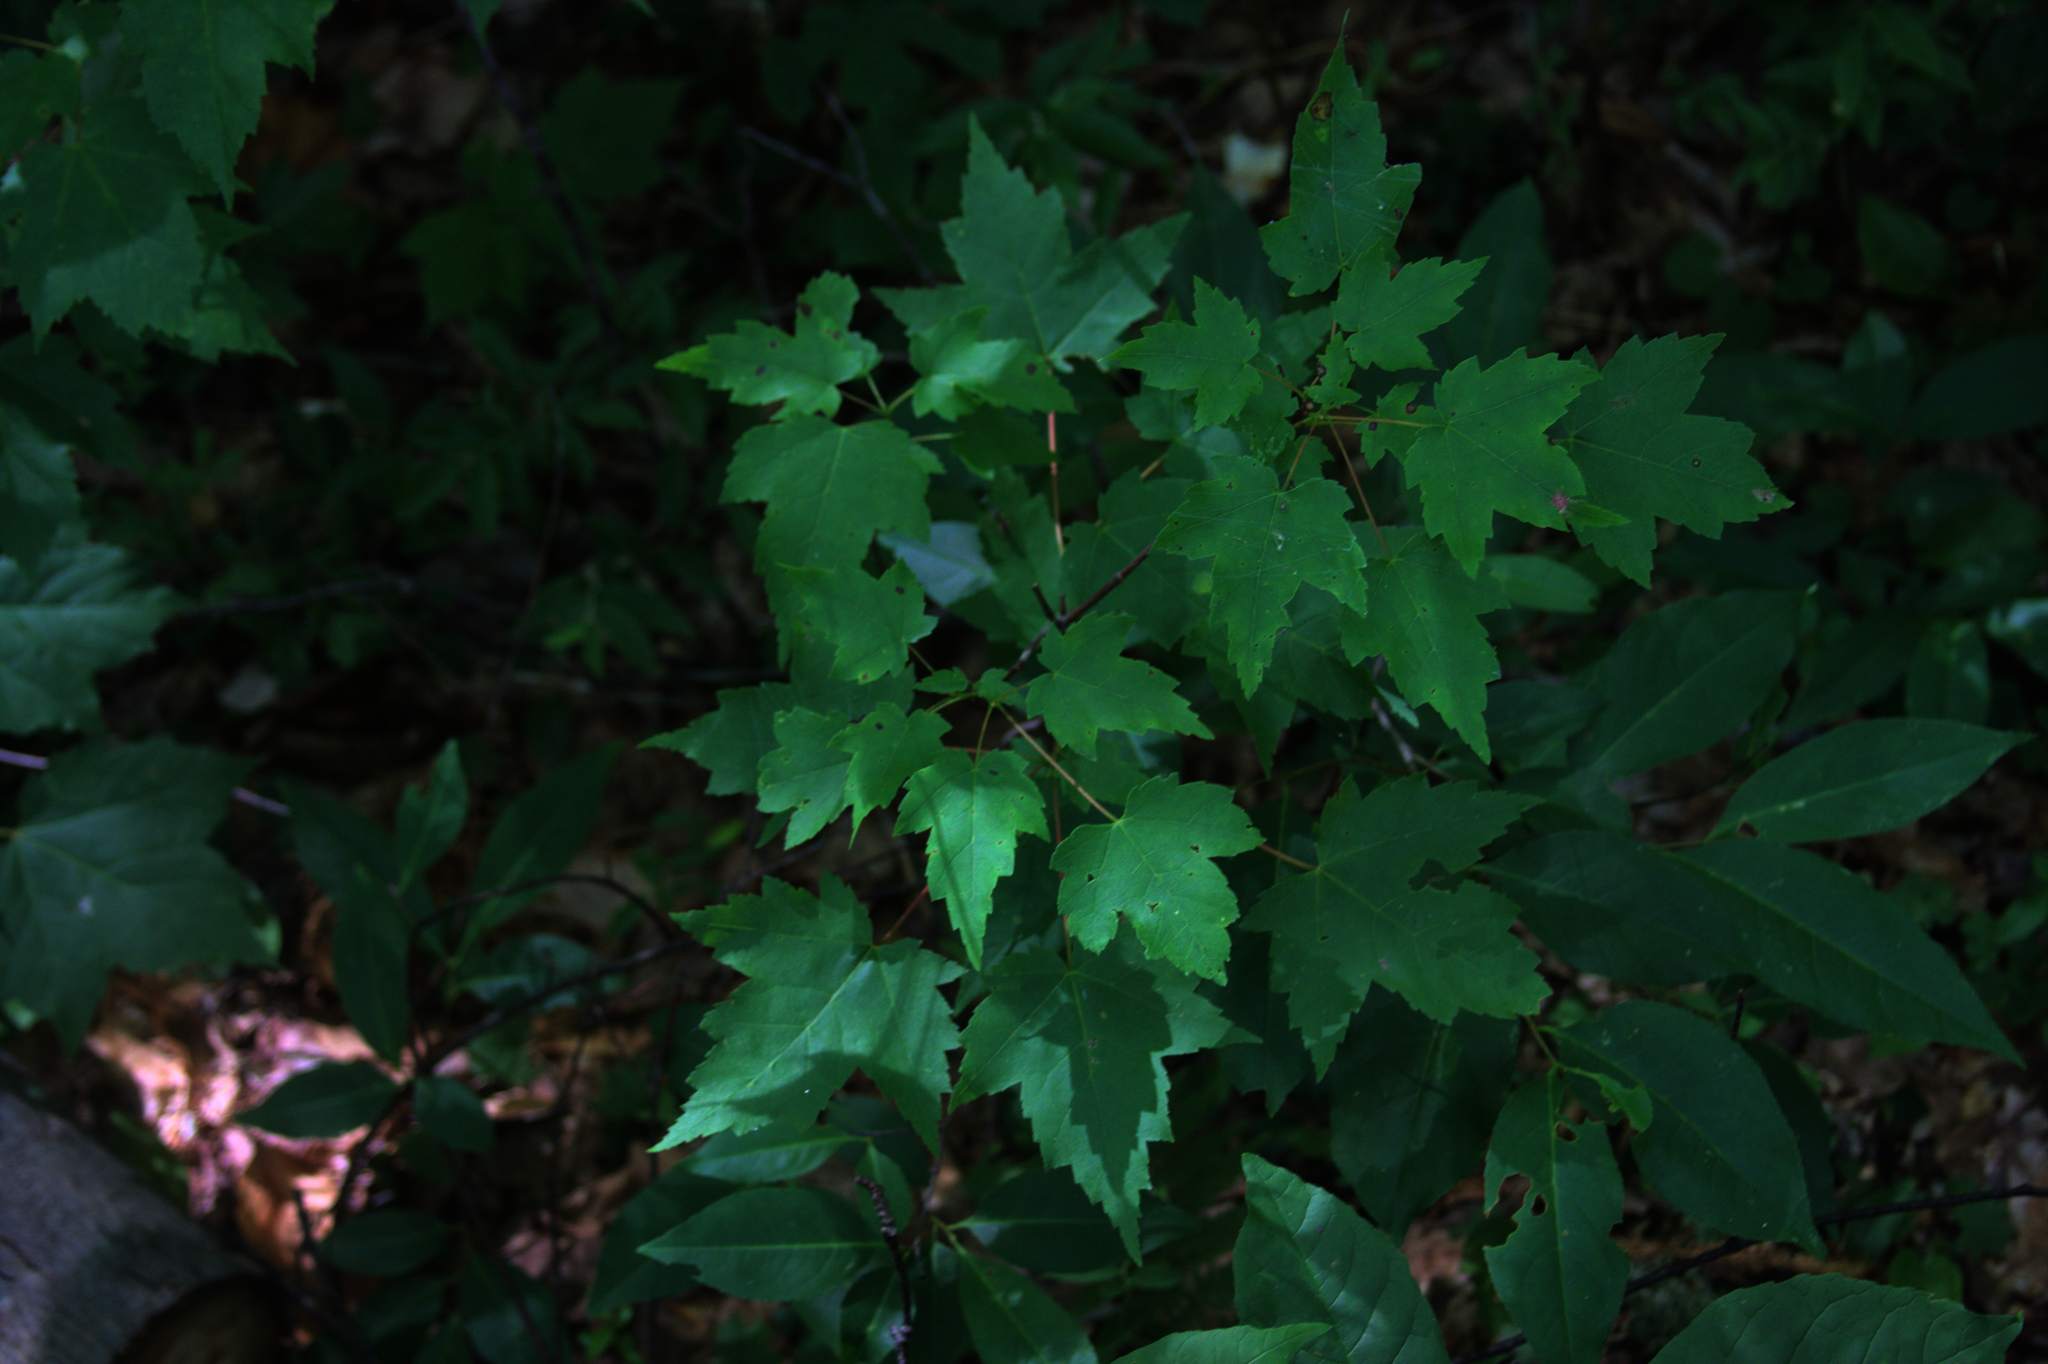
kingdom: Plantae
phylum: Tracheophyta
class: Magnoliopsida
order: Sapindales
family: Sapindaceae
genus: Acer
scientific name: Acer rubrum
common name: Red maple
